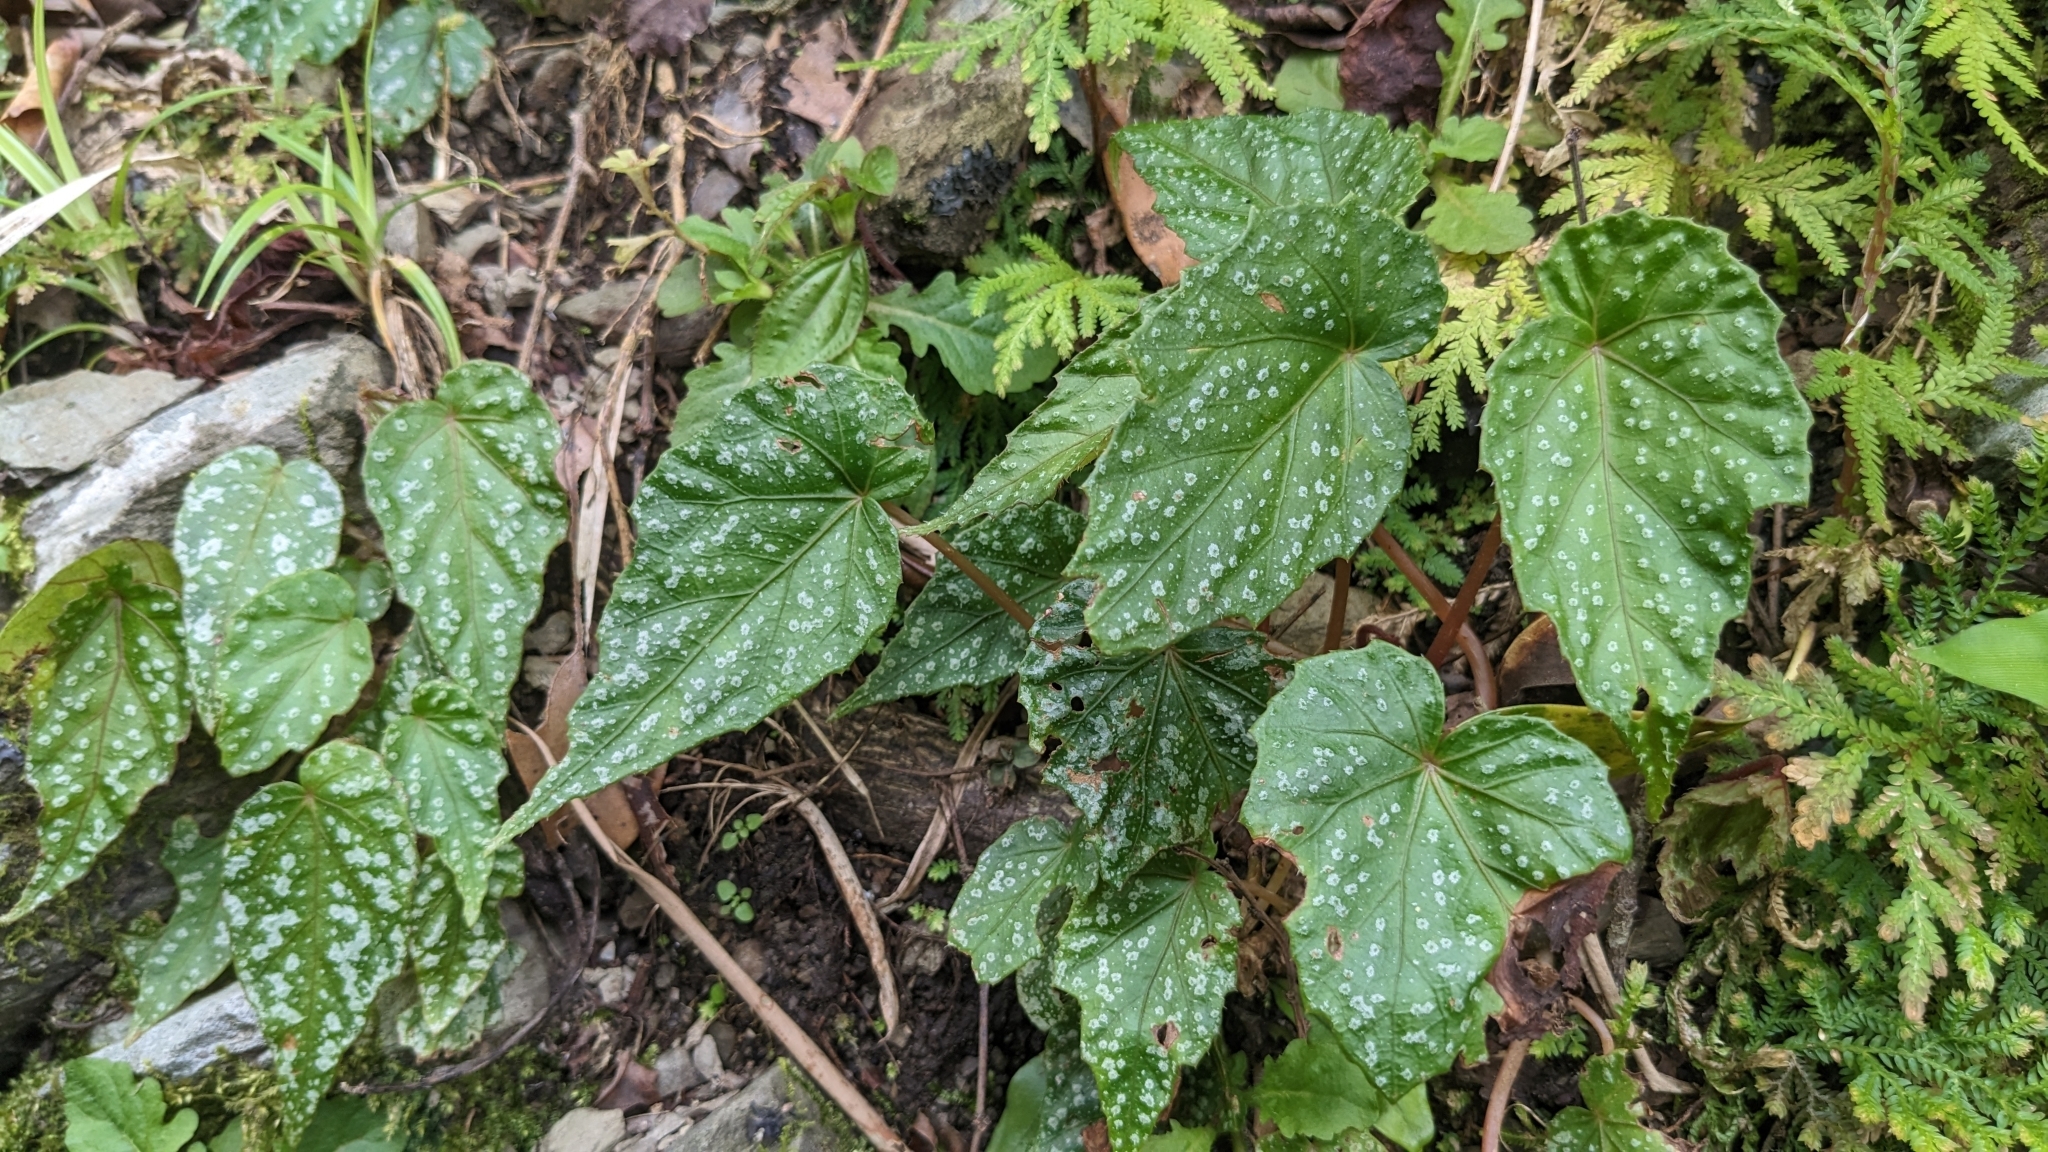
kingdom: Plantae
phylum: Tracheophyta
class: Magnoliopsida
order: Cucurbitales
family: Begoniaceae
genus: Begonia
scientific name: Begonia formosana
